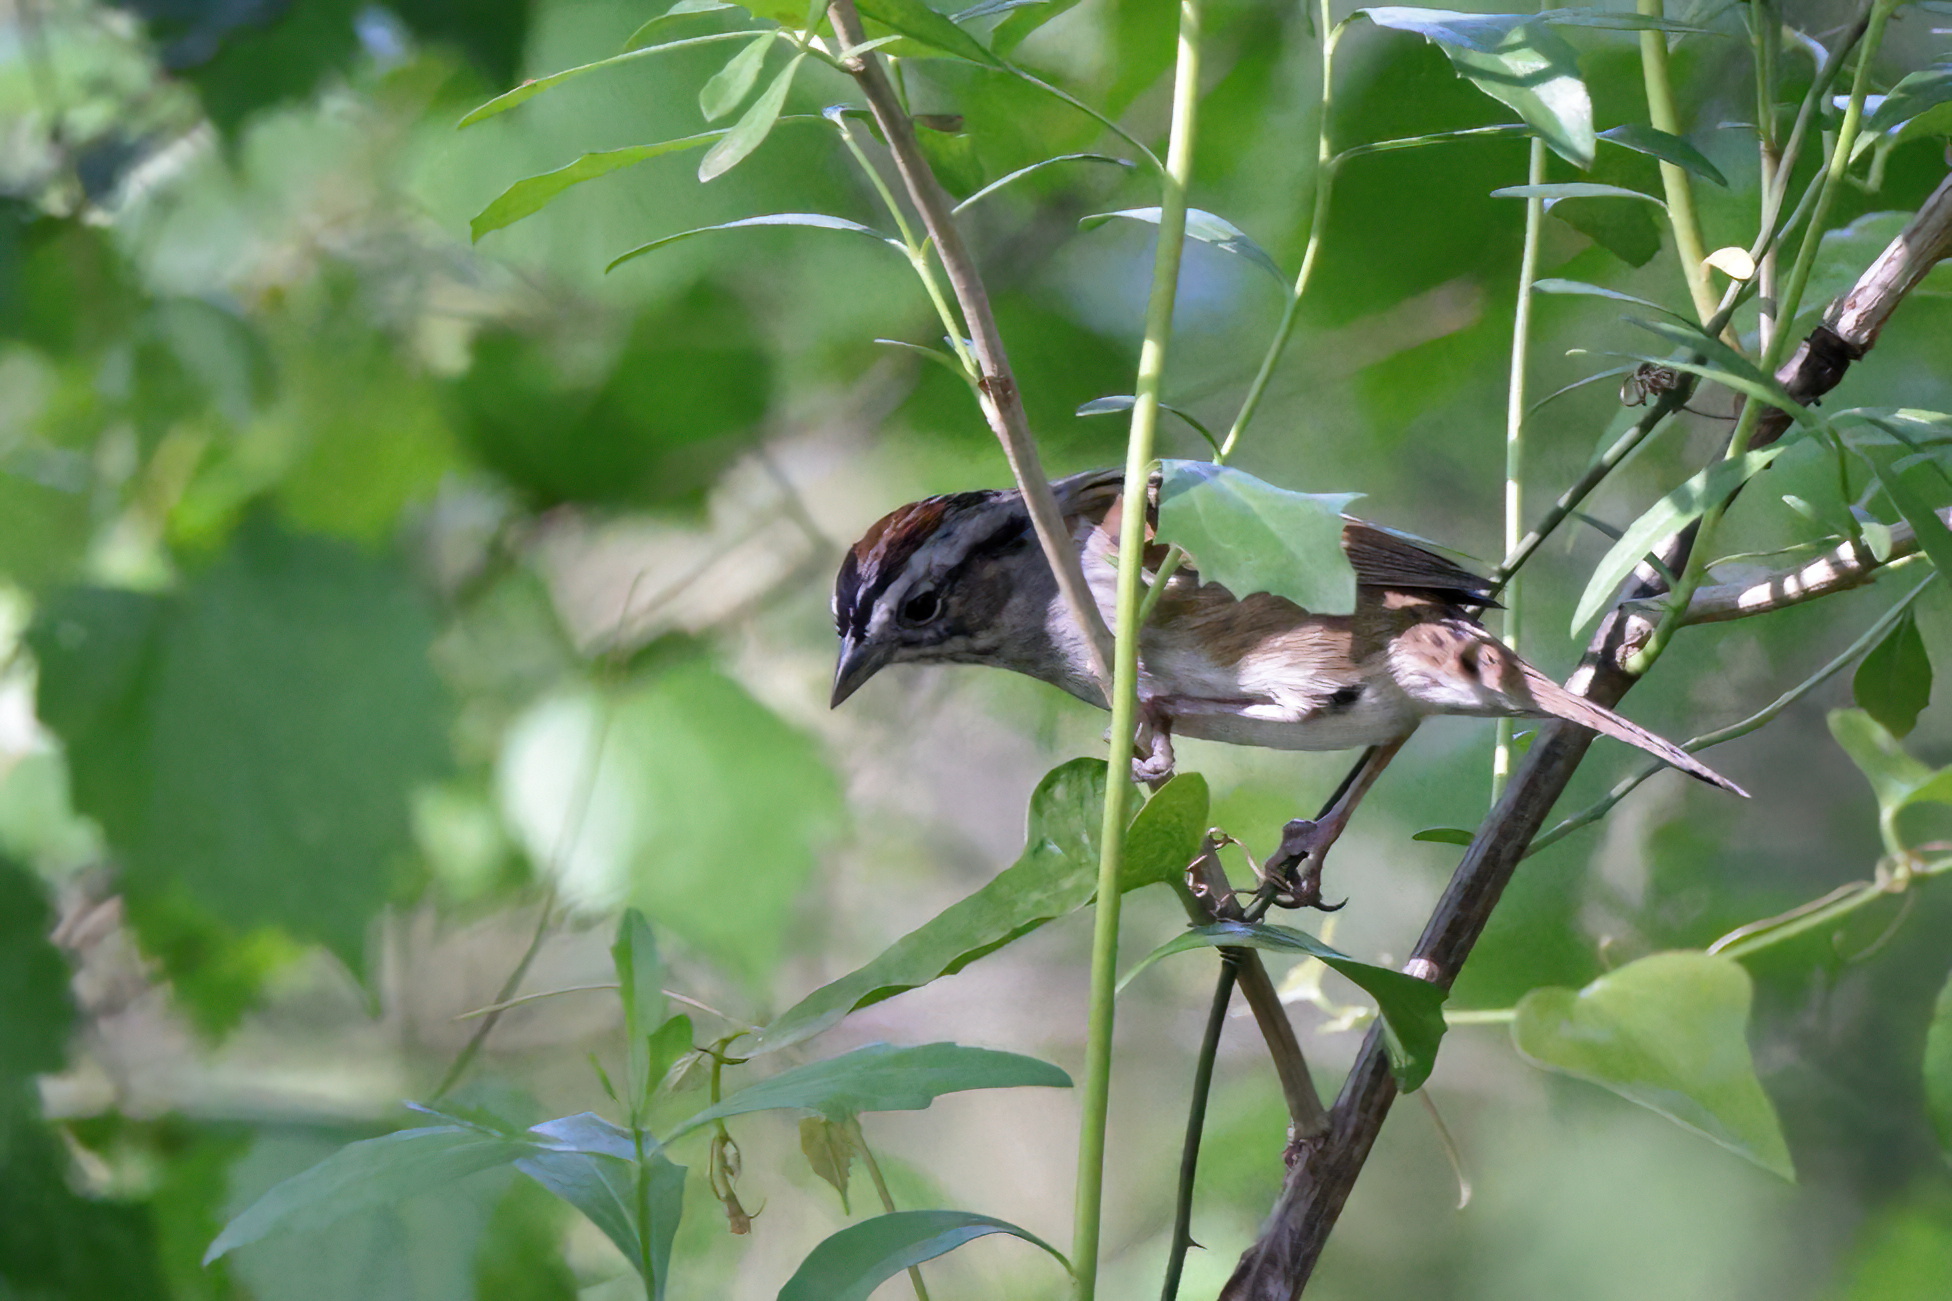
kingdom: Animalia
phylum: Chordata
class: Aves
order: Passeriformes
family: Passerellidae
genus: Melospiza
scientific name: Melospiza georgiana
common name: Swamp sparrow
